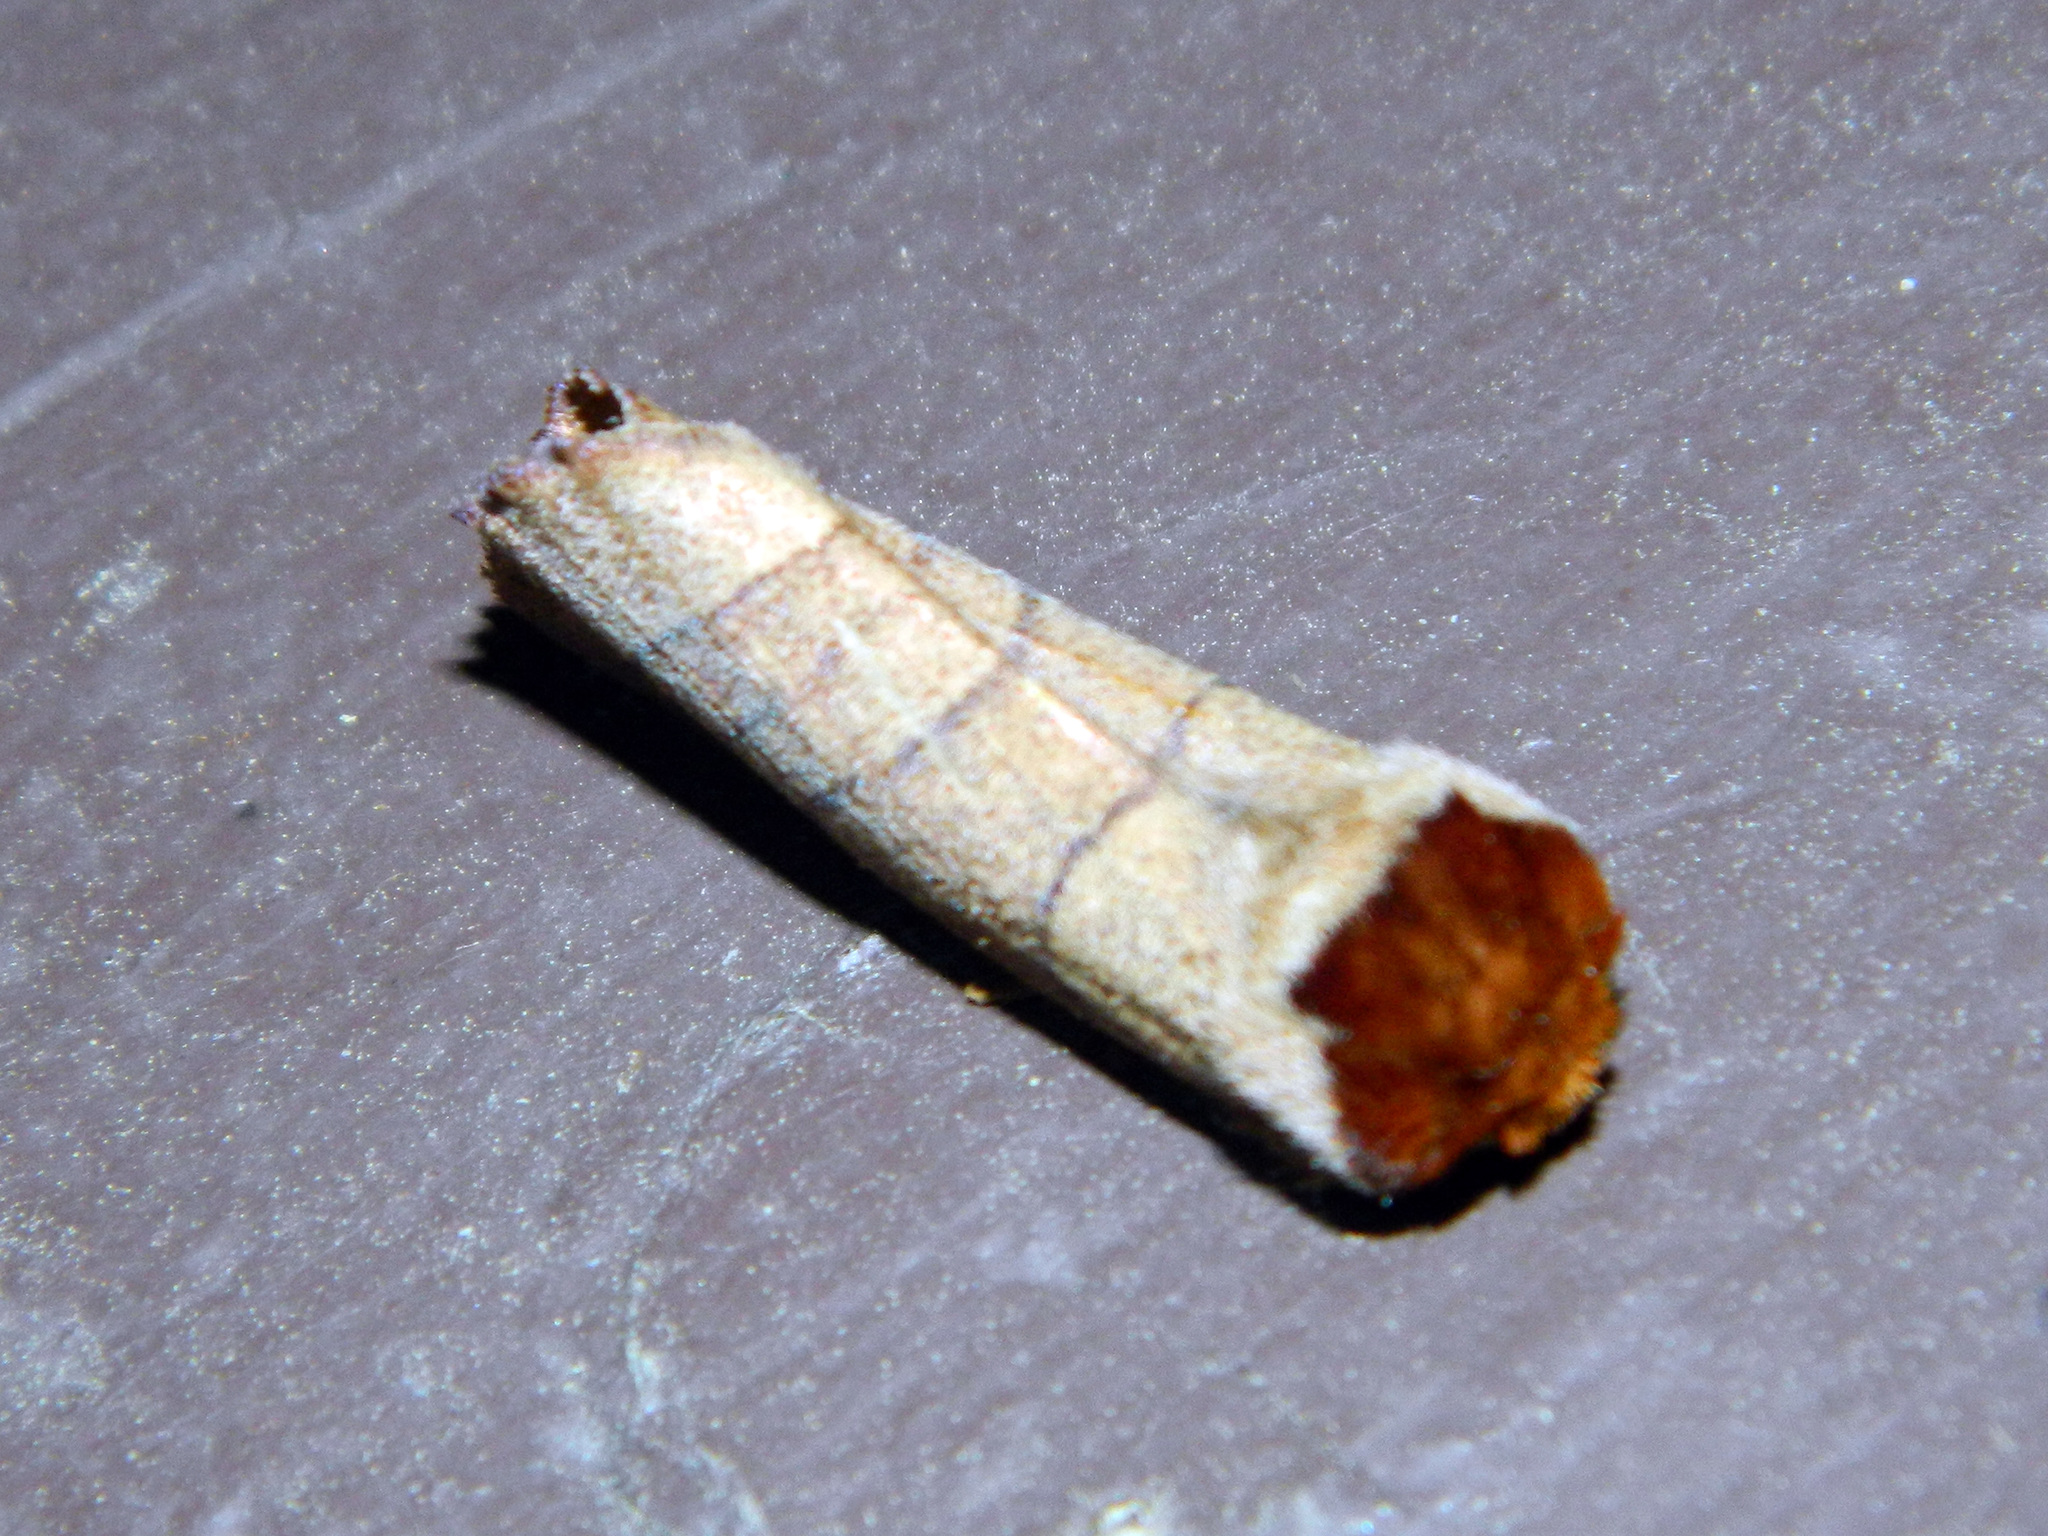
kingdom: Animalia
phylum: Arthropoda
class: Insecta
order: Lepidoptera
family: Notodontidae
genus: Datana
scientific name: Datana ministra
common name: Yellow-necked caterpillar moth
